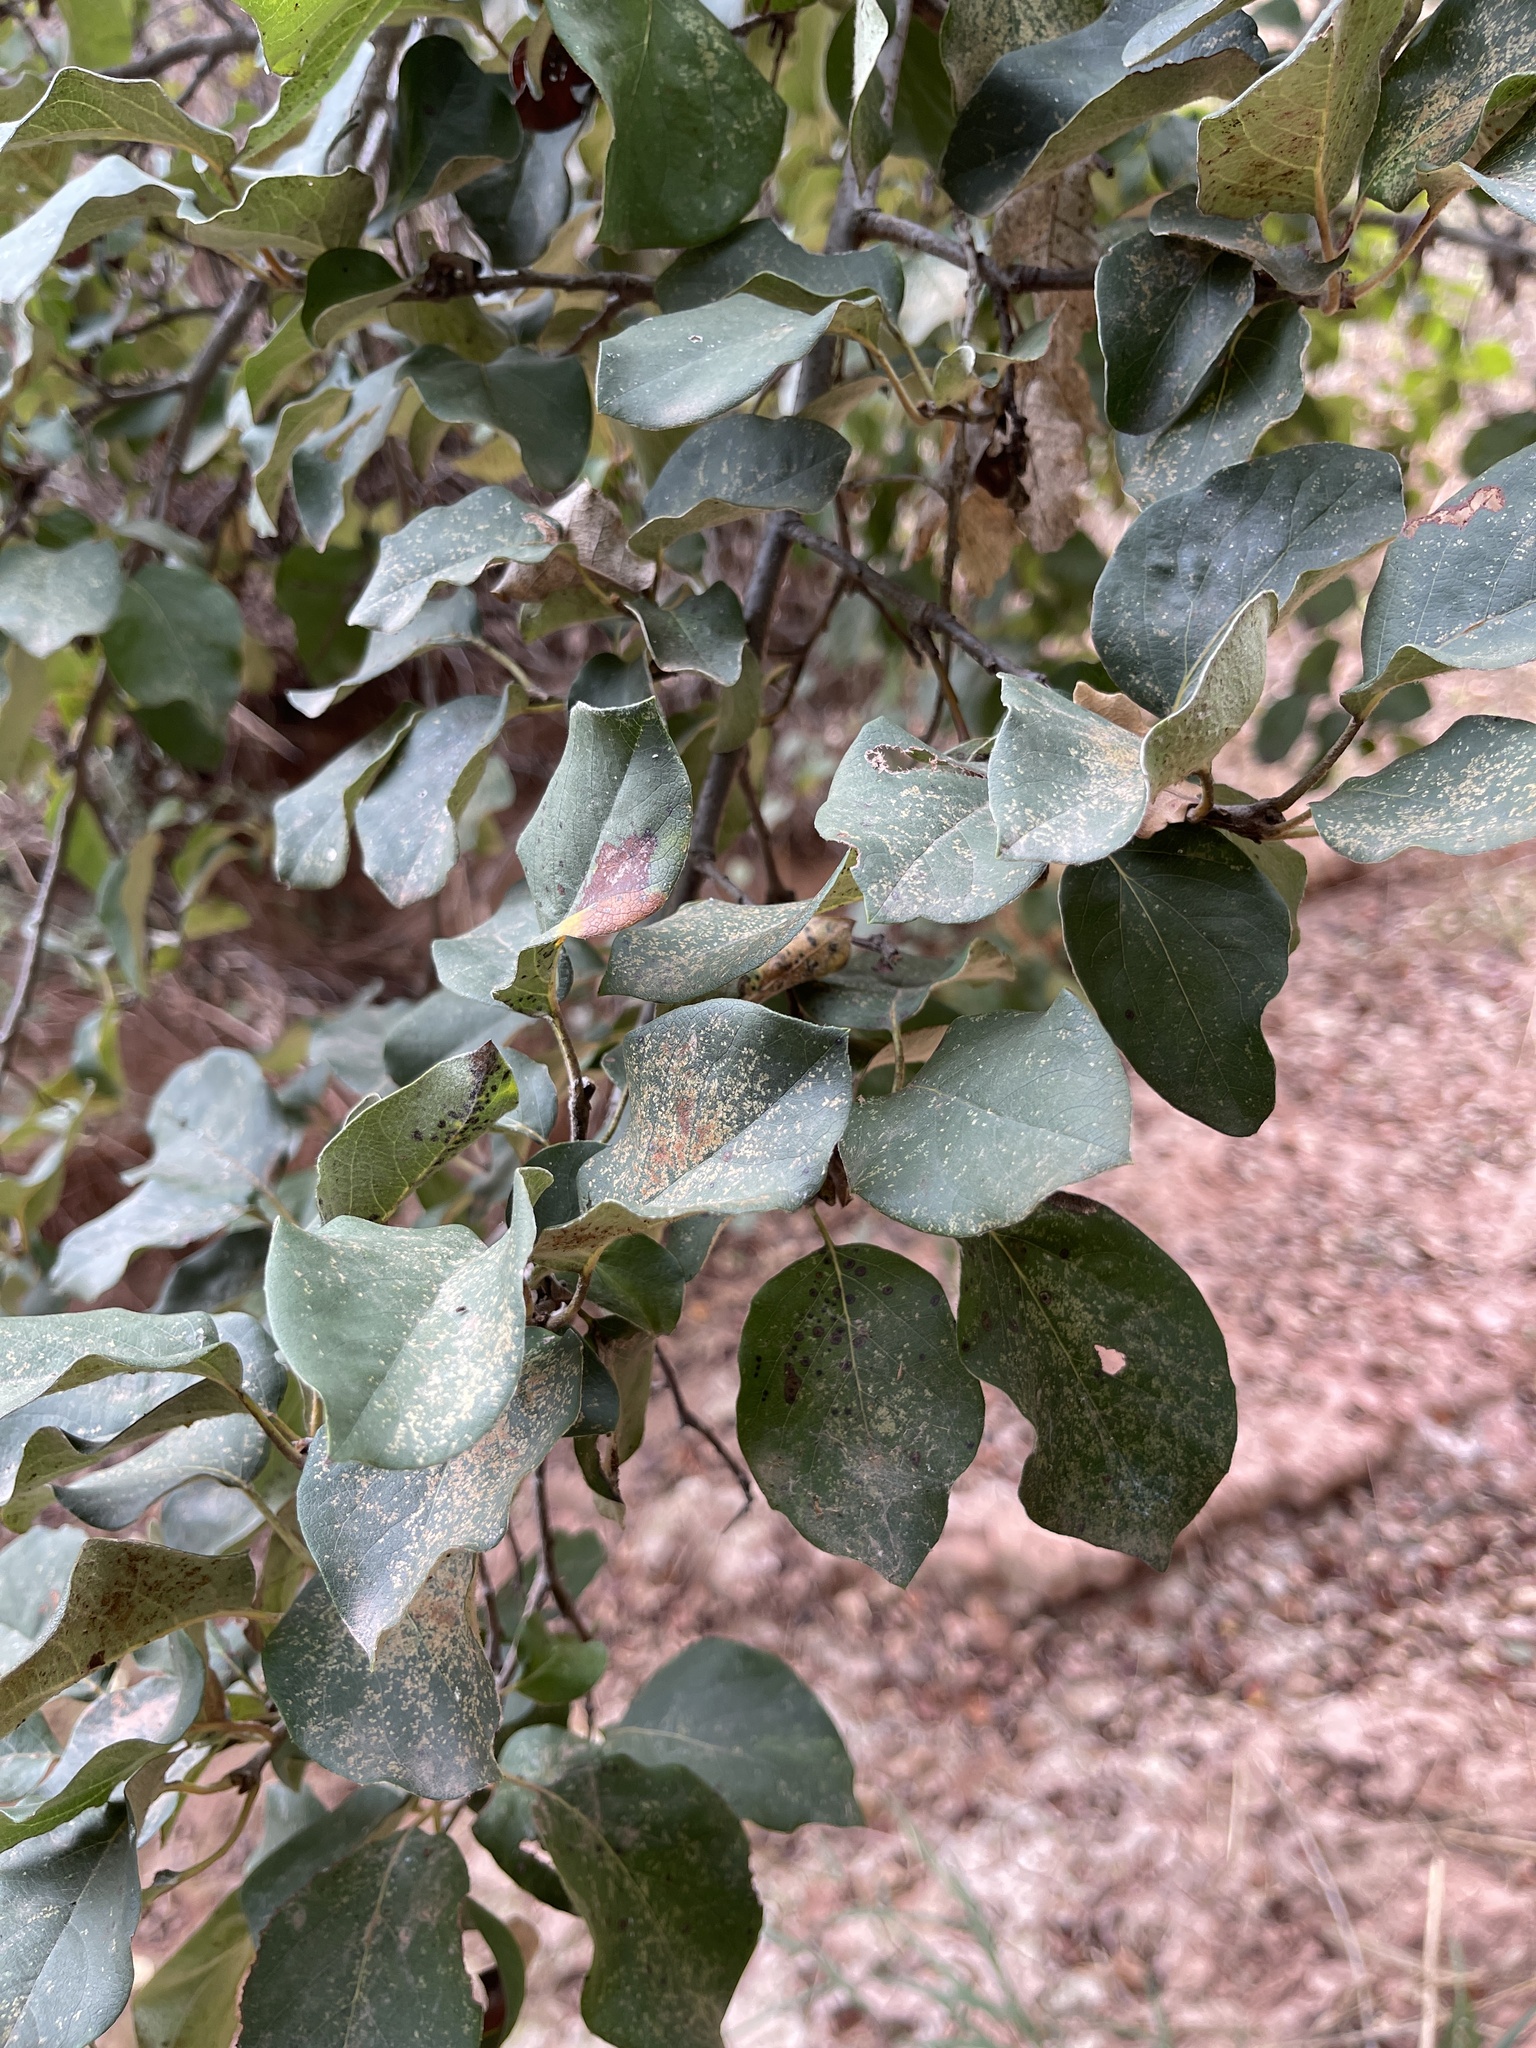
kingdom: Plantae
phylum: Tracheophyta
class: Magnoliopsida
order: Rosales
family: Rosaceae
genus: Cydonia
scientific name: Cydonia oblonga
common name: Quince
